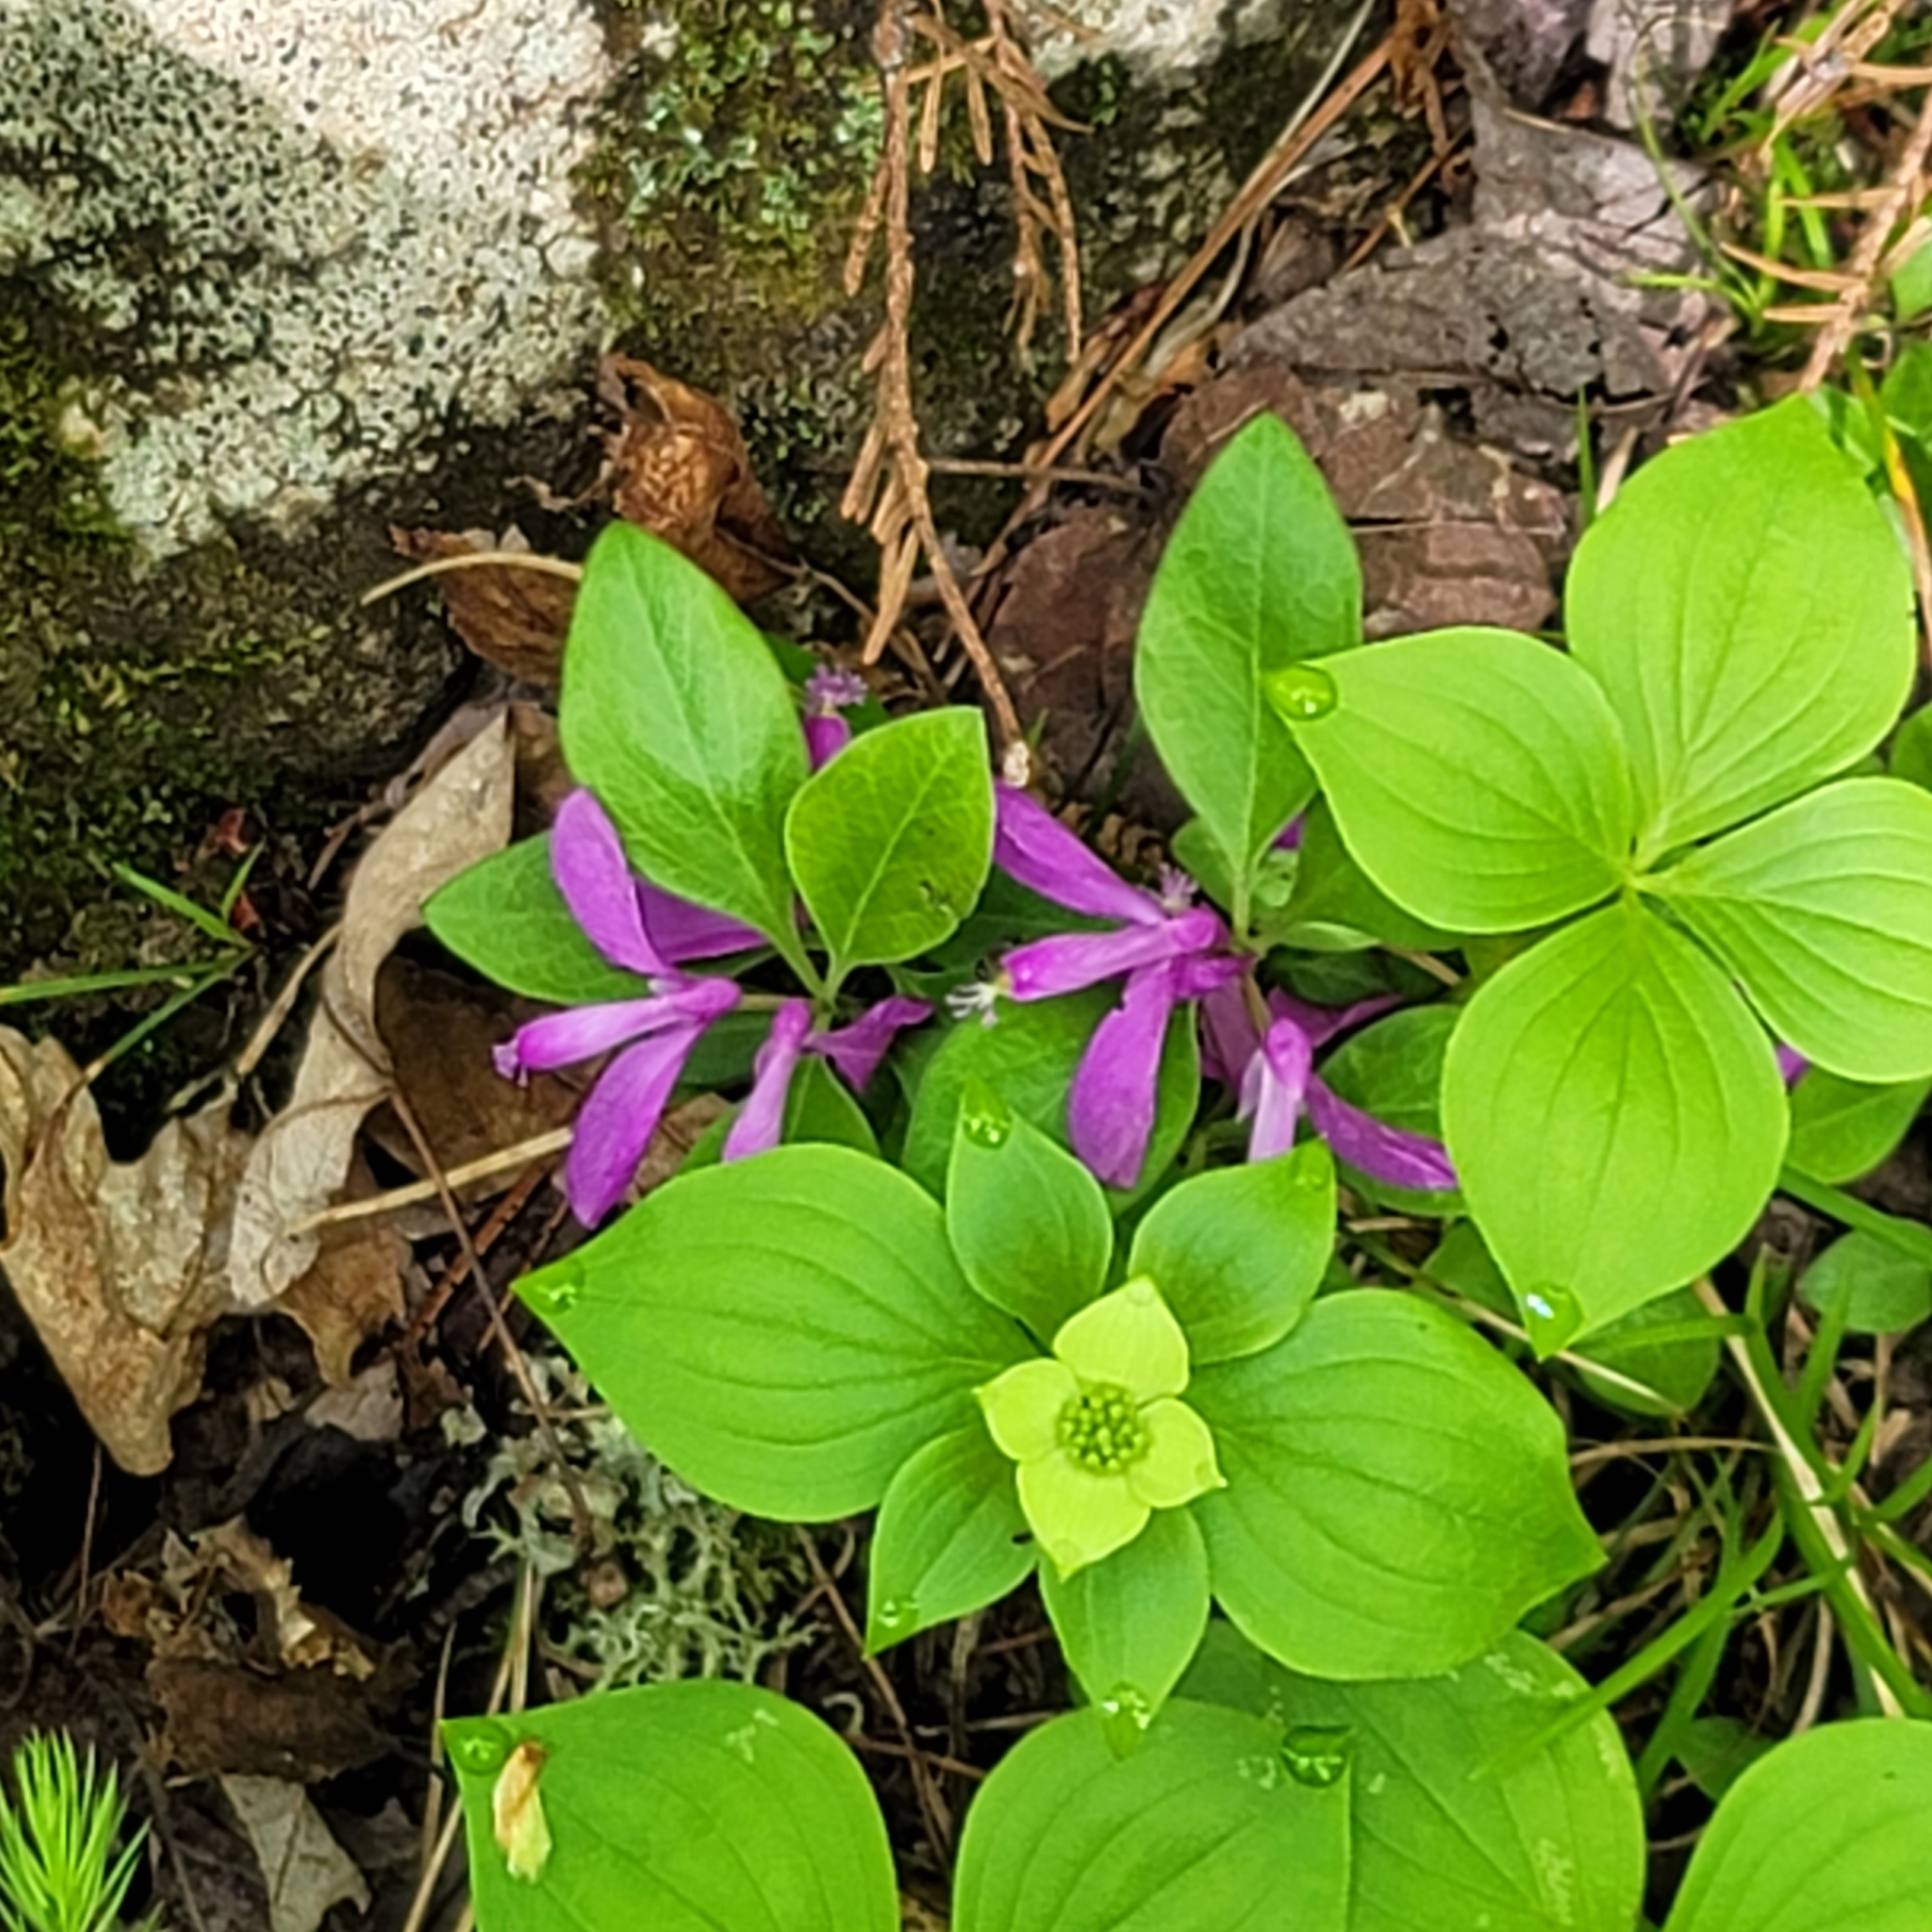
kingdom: Plantae
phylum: Tracheophyta
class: Magnoliopsida
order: Fabales
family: Polygalaceae
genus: Polygaloides
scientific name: Polygaloides paucifolia
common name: Bird-on-the-wing
